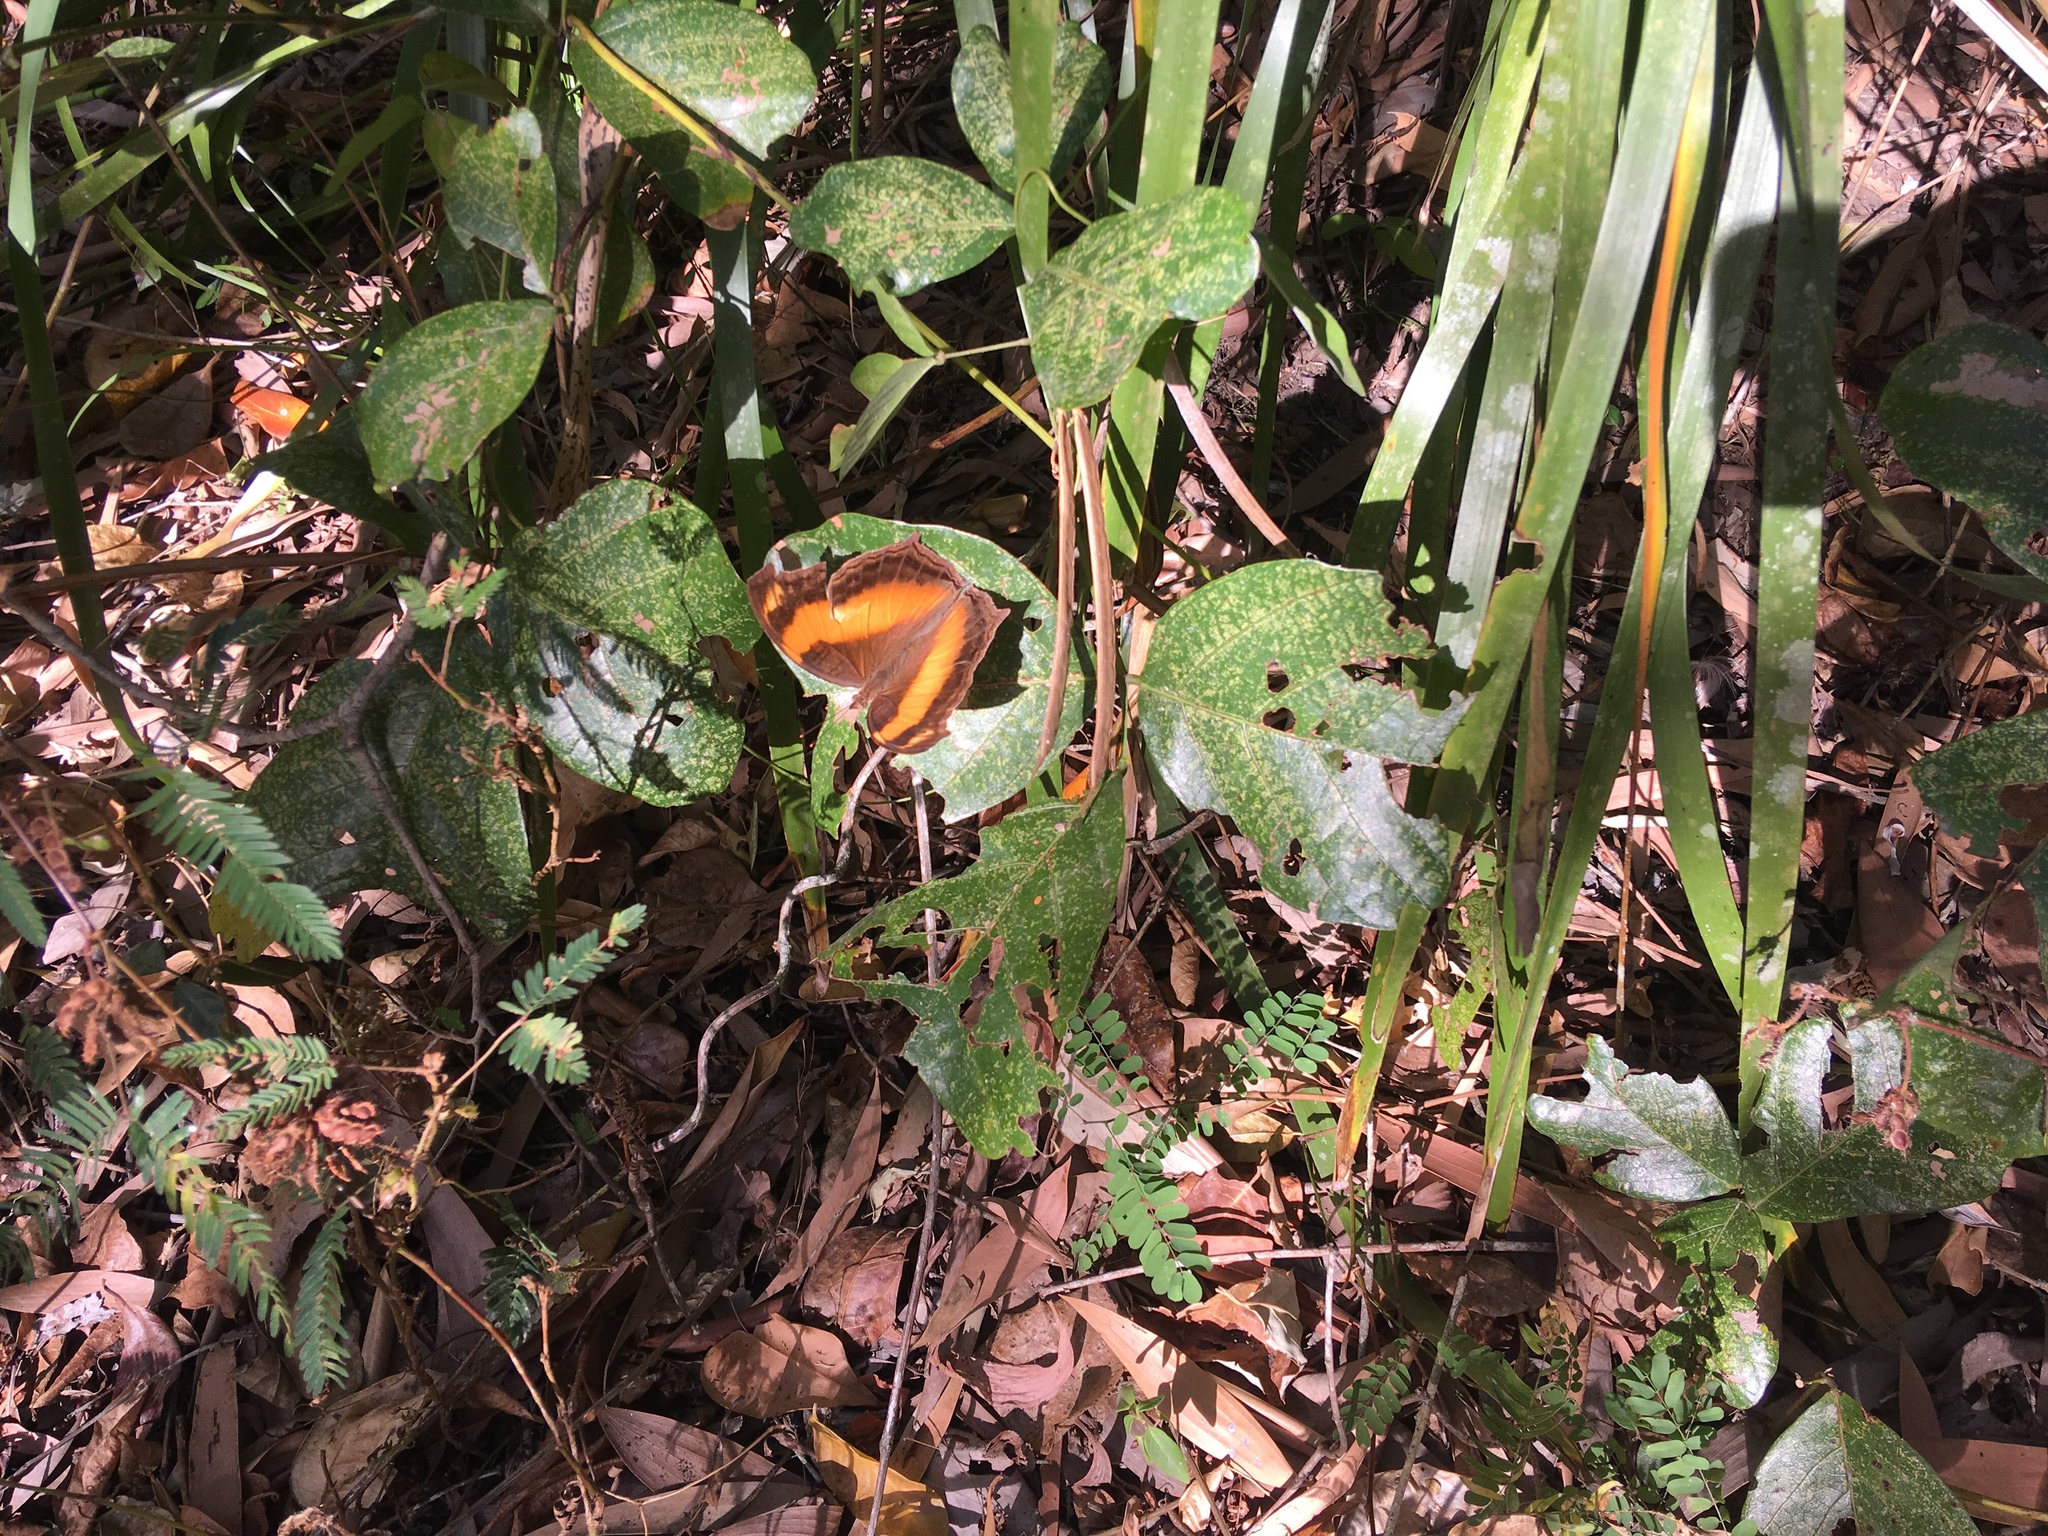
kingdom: Animalia
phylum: Arthropoda
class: Insecta
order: Lepidoptera
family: Nymphalidae
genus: Yoma
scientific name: Yoma sabina
